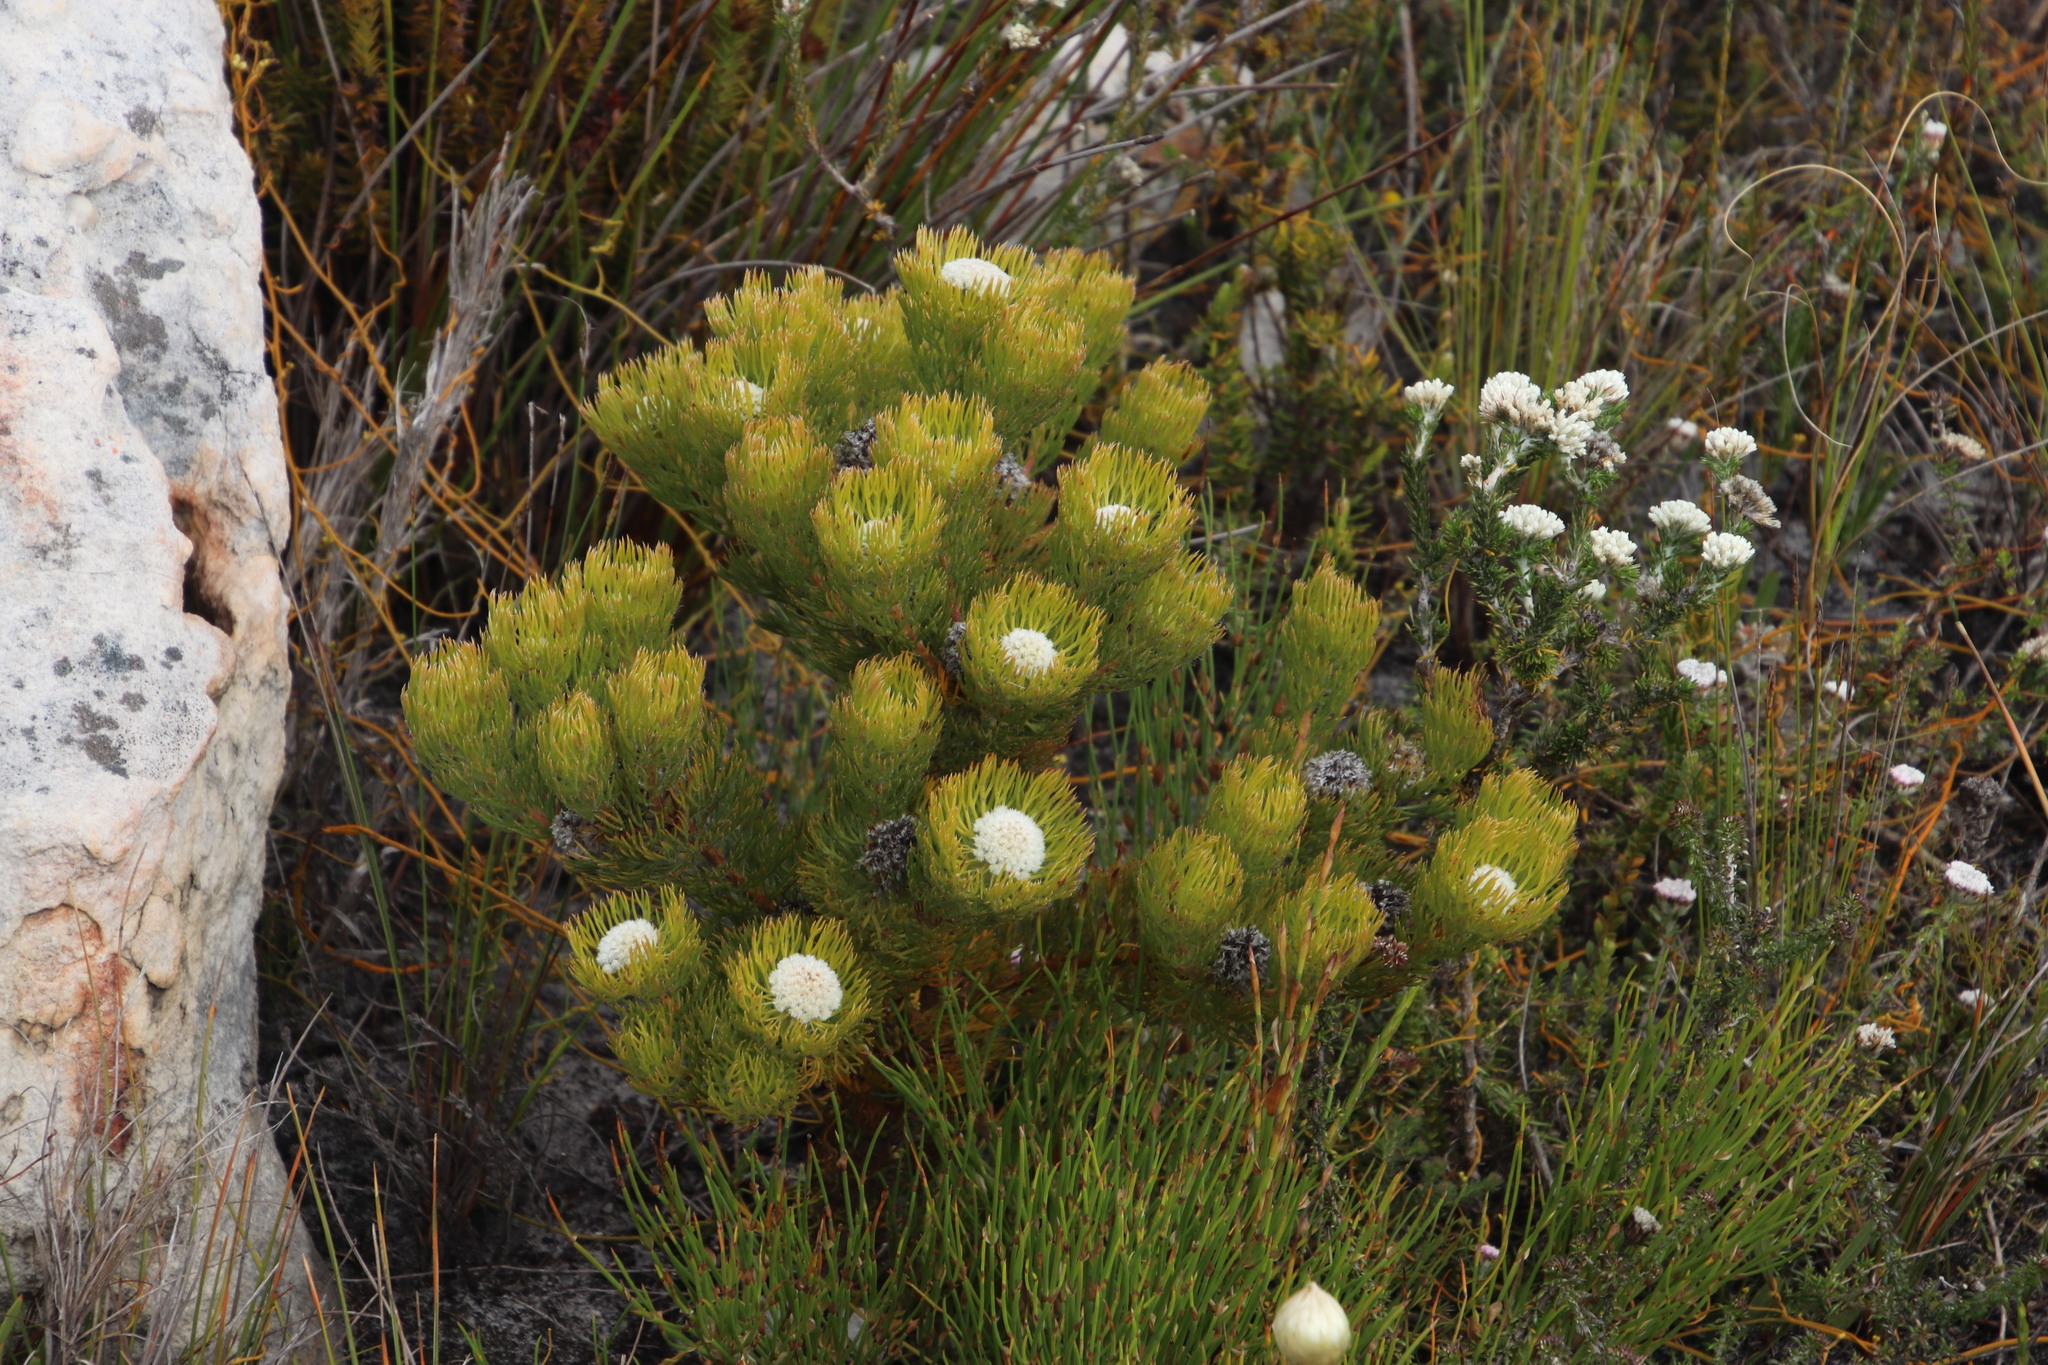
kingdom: Plantae
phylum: Tracheophyta
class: Magnoliopsida
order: Proteales
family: Proteaceae
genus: Serruria
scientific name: Serruria villosa
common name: Golden spiderhead
